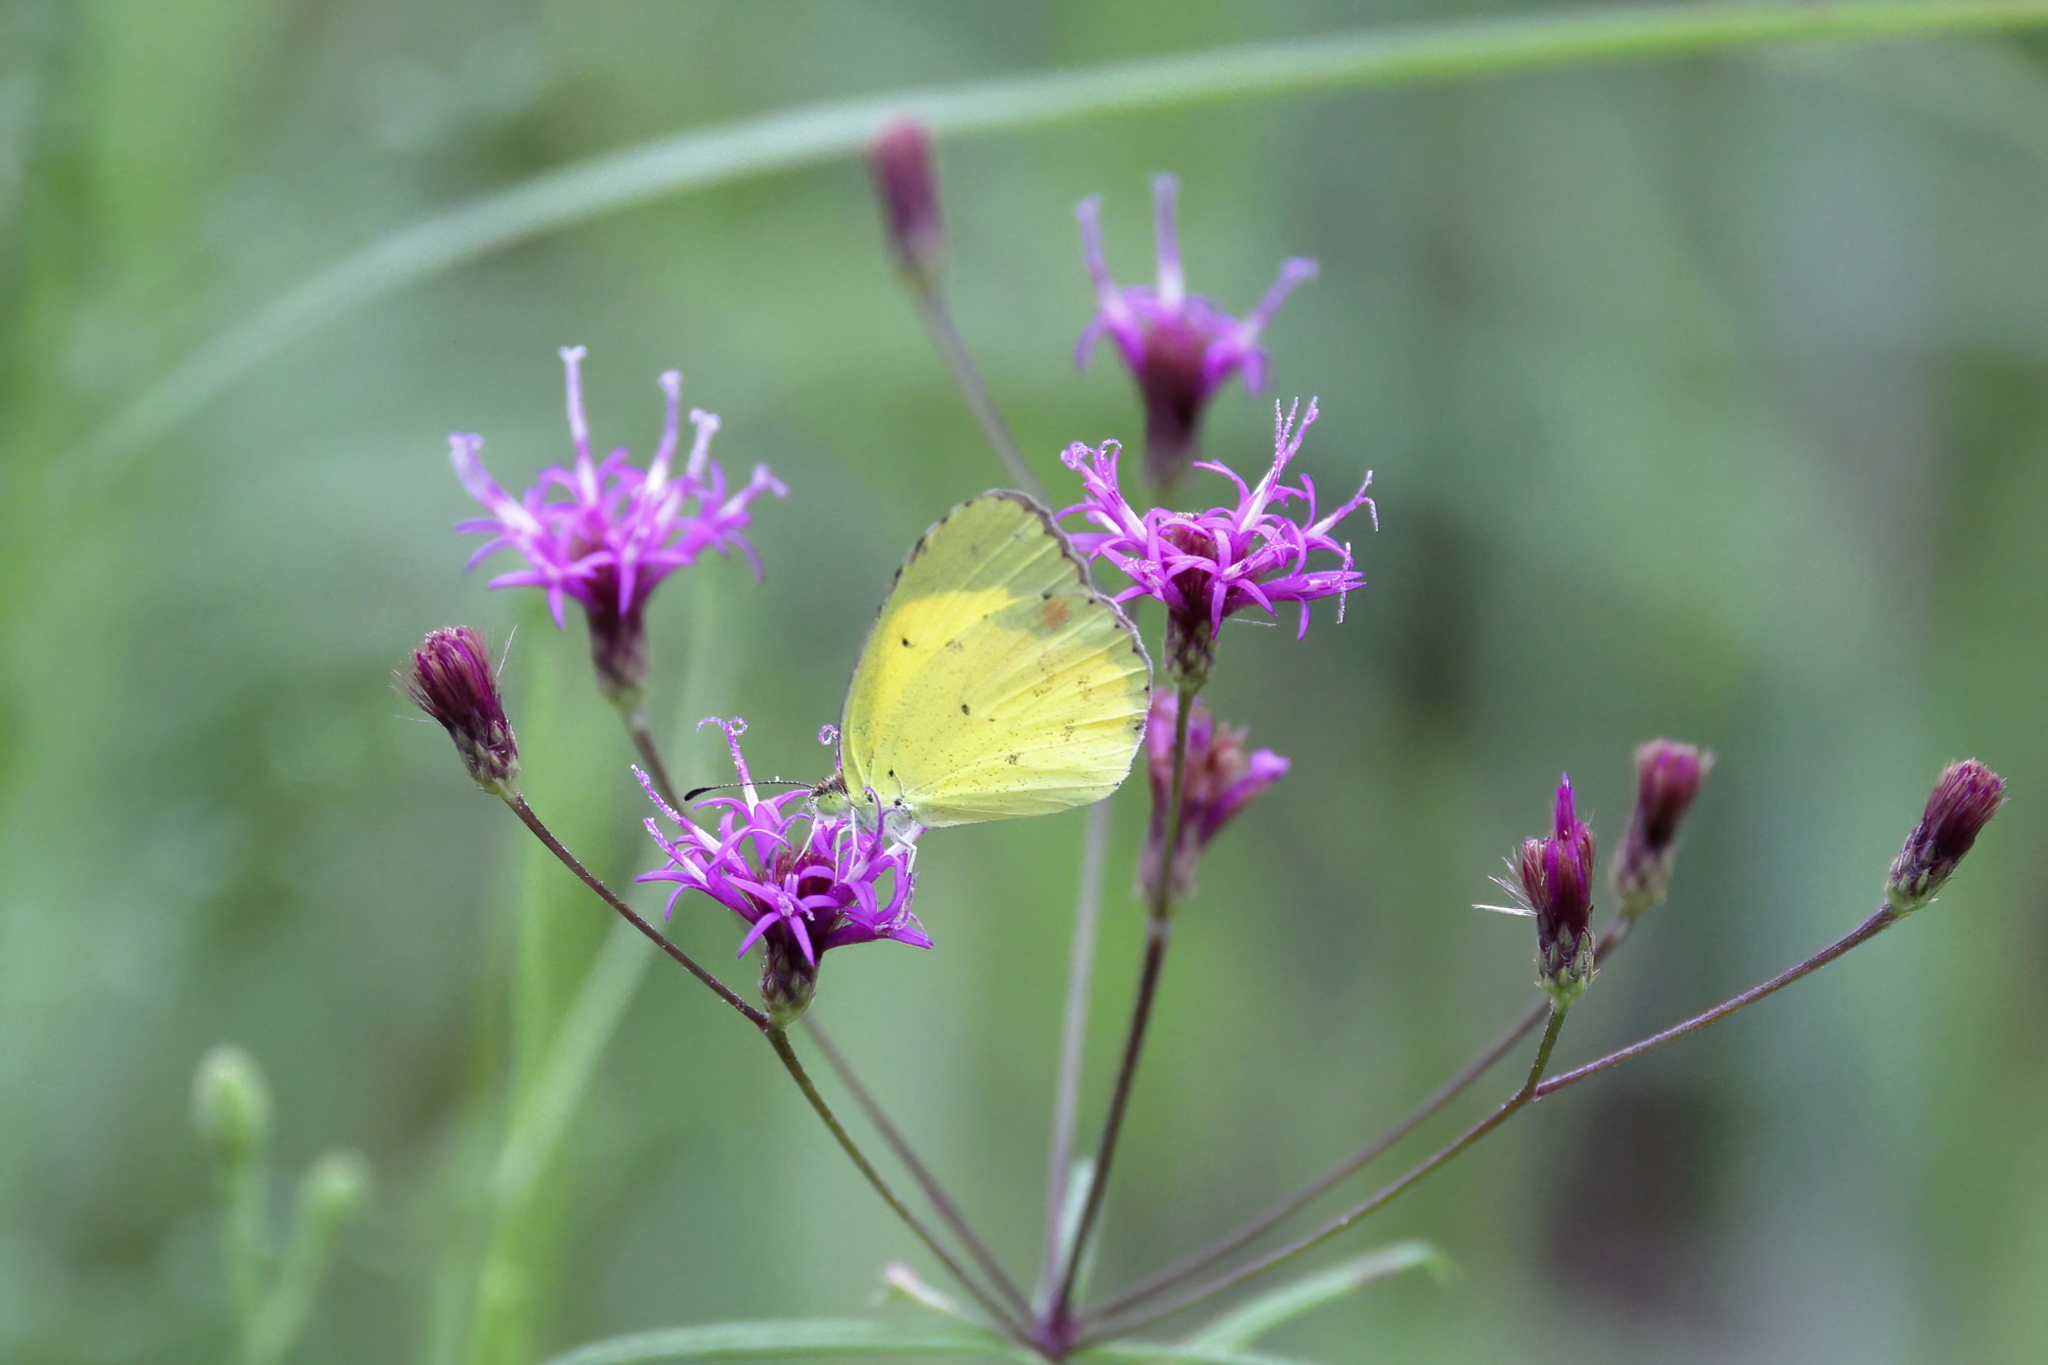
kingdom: Animalia
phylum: Arthropoda
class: Insecta
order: Lepidoptera
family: Pieridae
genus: Pyrisitia
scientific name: Pyrisitia lisa
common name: Little yellow
